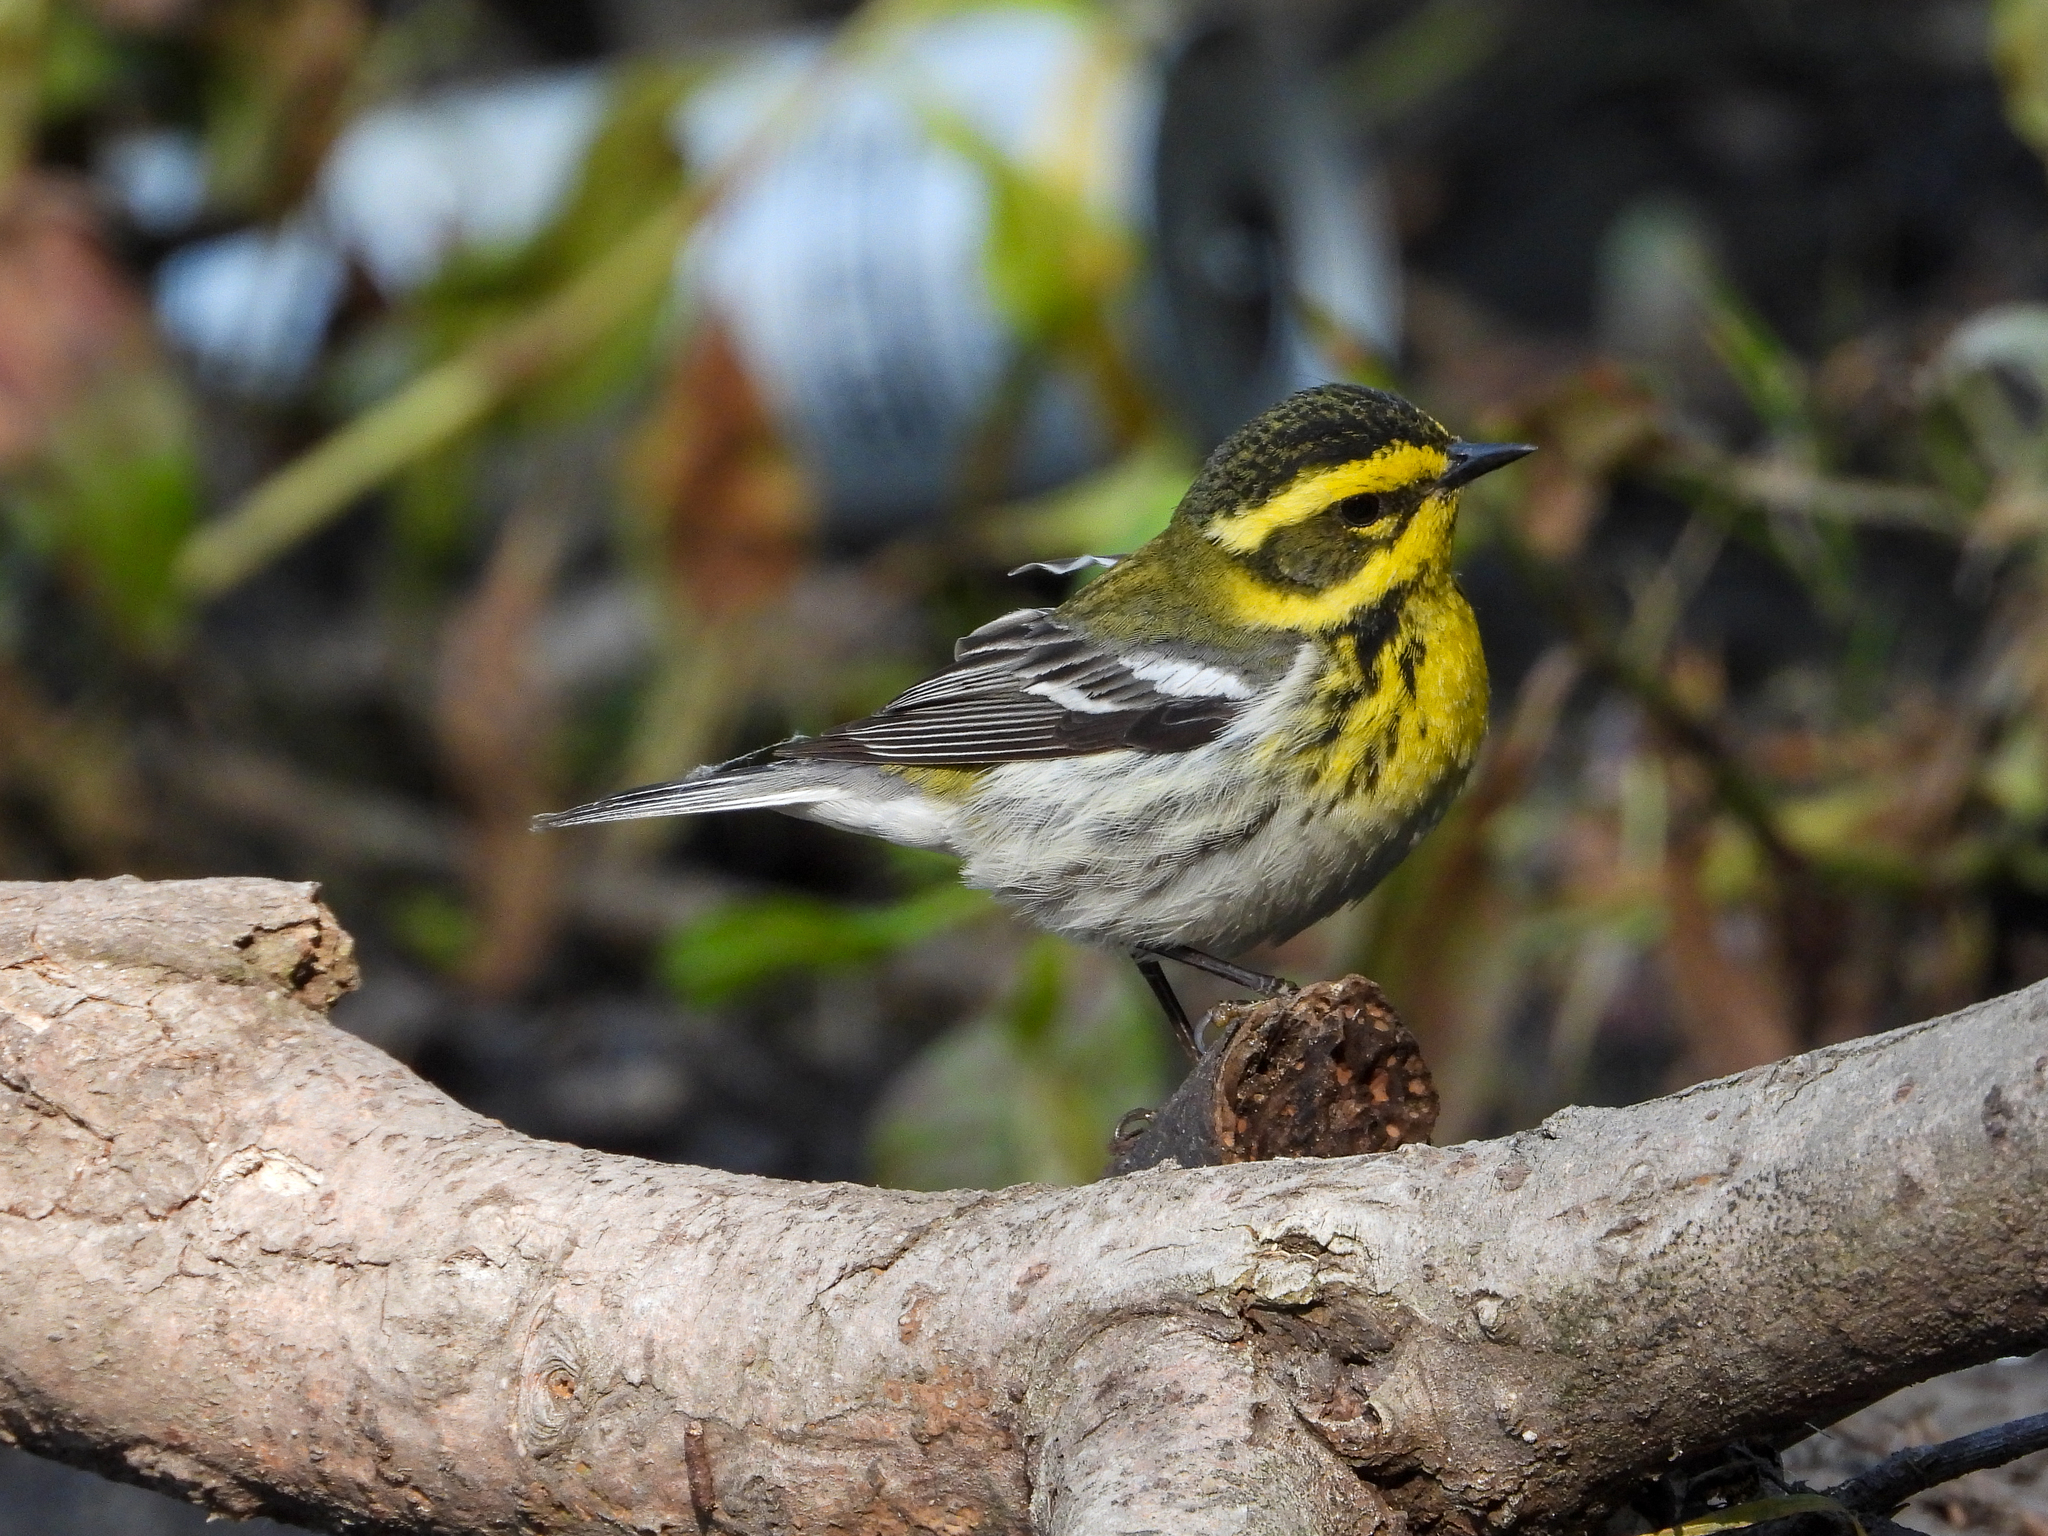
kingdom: Animalia
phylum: Chordata
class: Aves
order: Passeriformes
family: Parulidae
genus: Setophaga
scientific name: Setophaga townsendi
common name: Townsend's warbler
